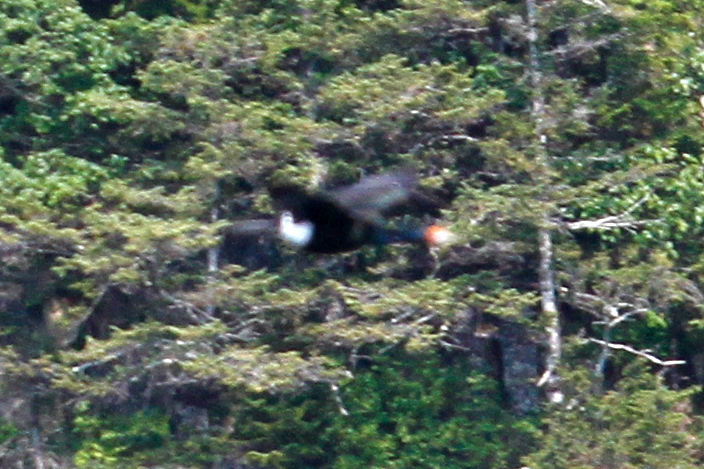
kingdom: Animalia
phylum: Chordata
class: Aves
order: Suliformes
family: Phalacrocoracidae
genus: Phalacrocorax
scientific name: Phalacrocorax urile
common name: Red-faced cormorant
